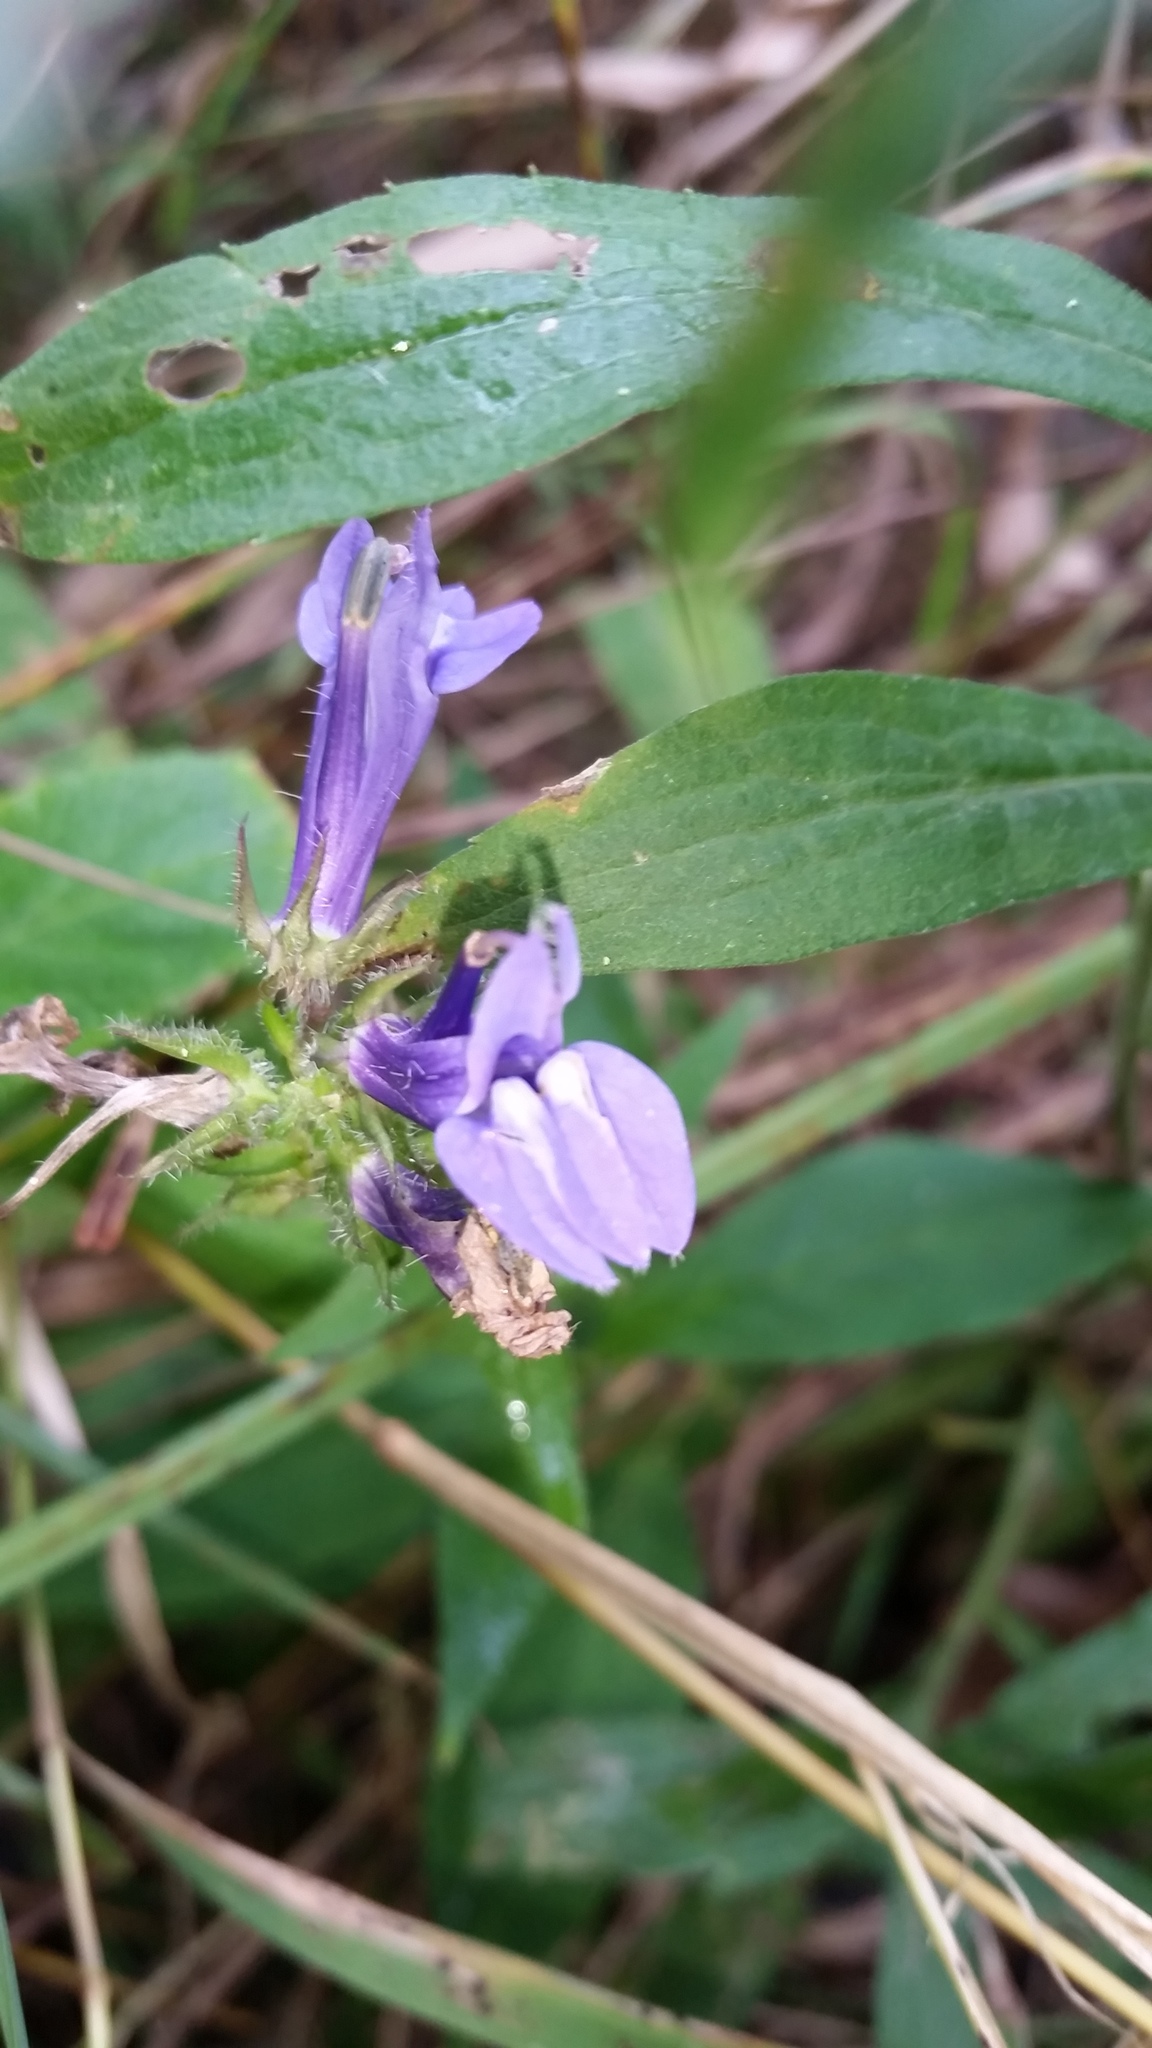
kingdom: Plantae
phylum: Tracheophyta
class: Magnoliopsida
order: Asterales
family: Campanulaceae
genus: Lobelia
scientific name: Lobelia siphilitica
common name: Great lobelia
